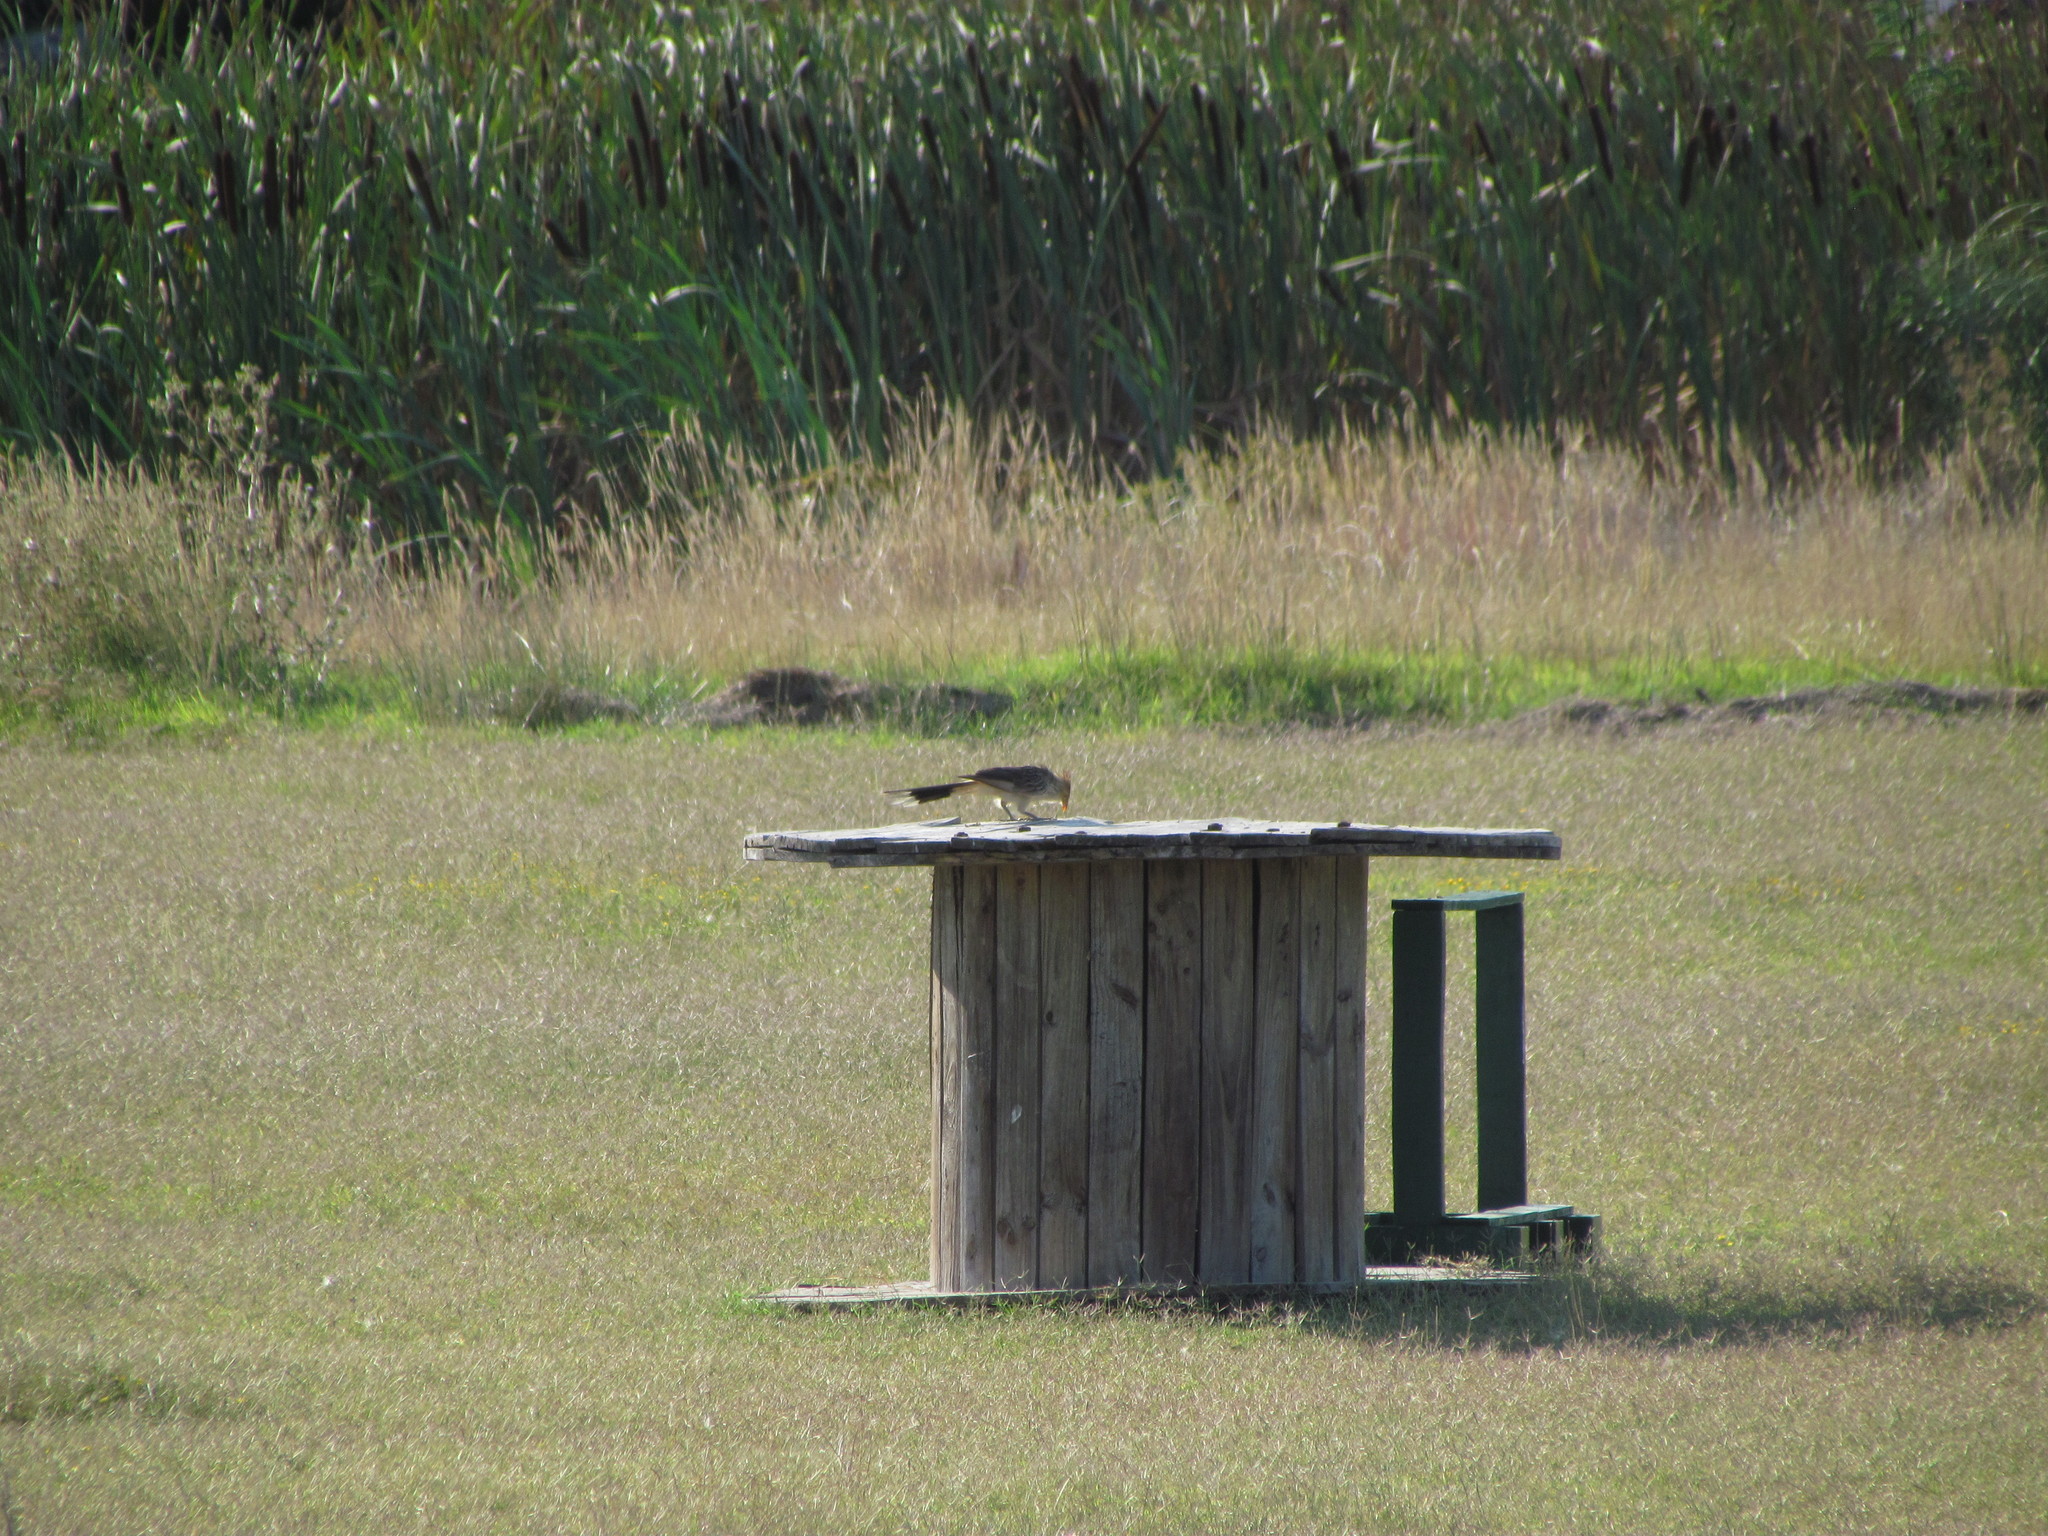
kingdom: Animalia
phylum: Chordata
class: Aves
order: Cuculiformes
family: Cuculidae
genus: Guira
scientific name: Guira guira
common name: Guira cuckoo
